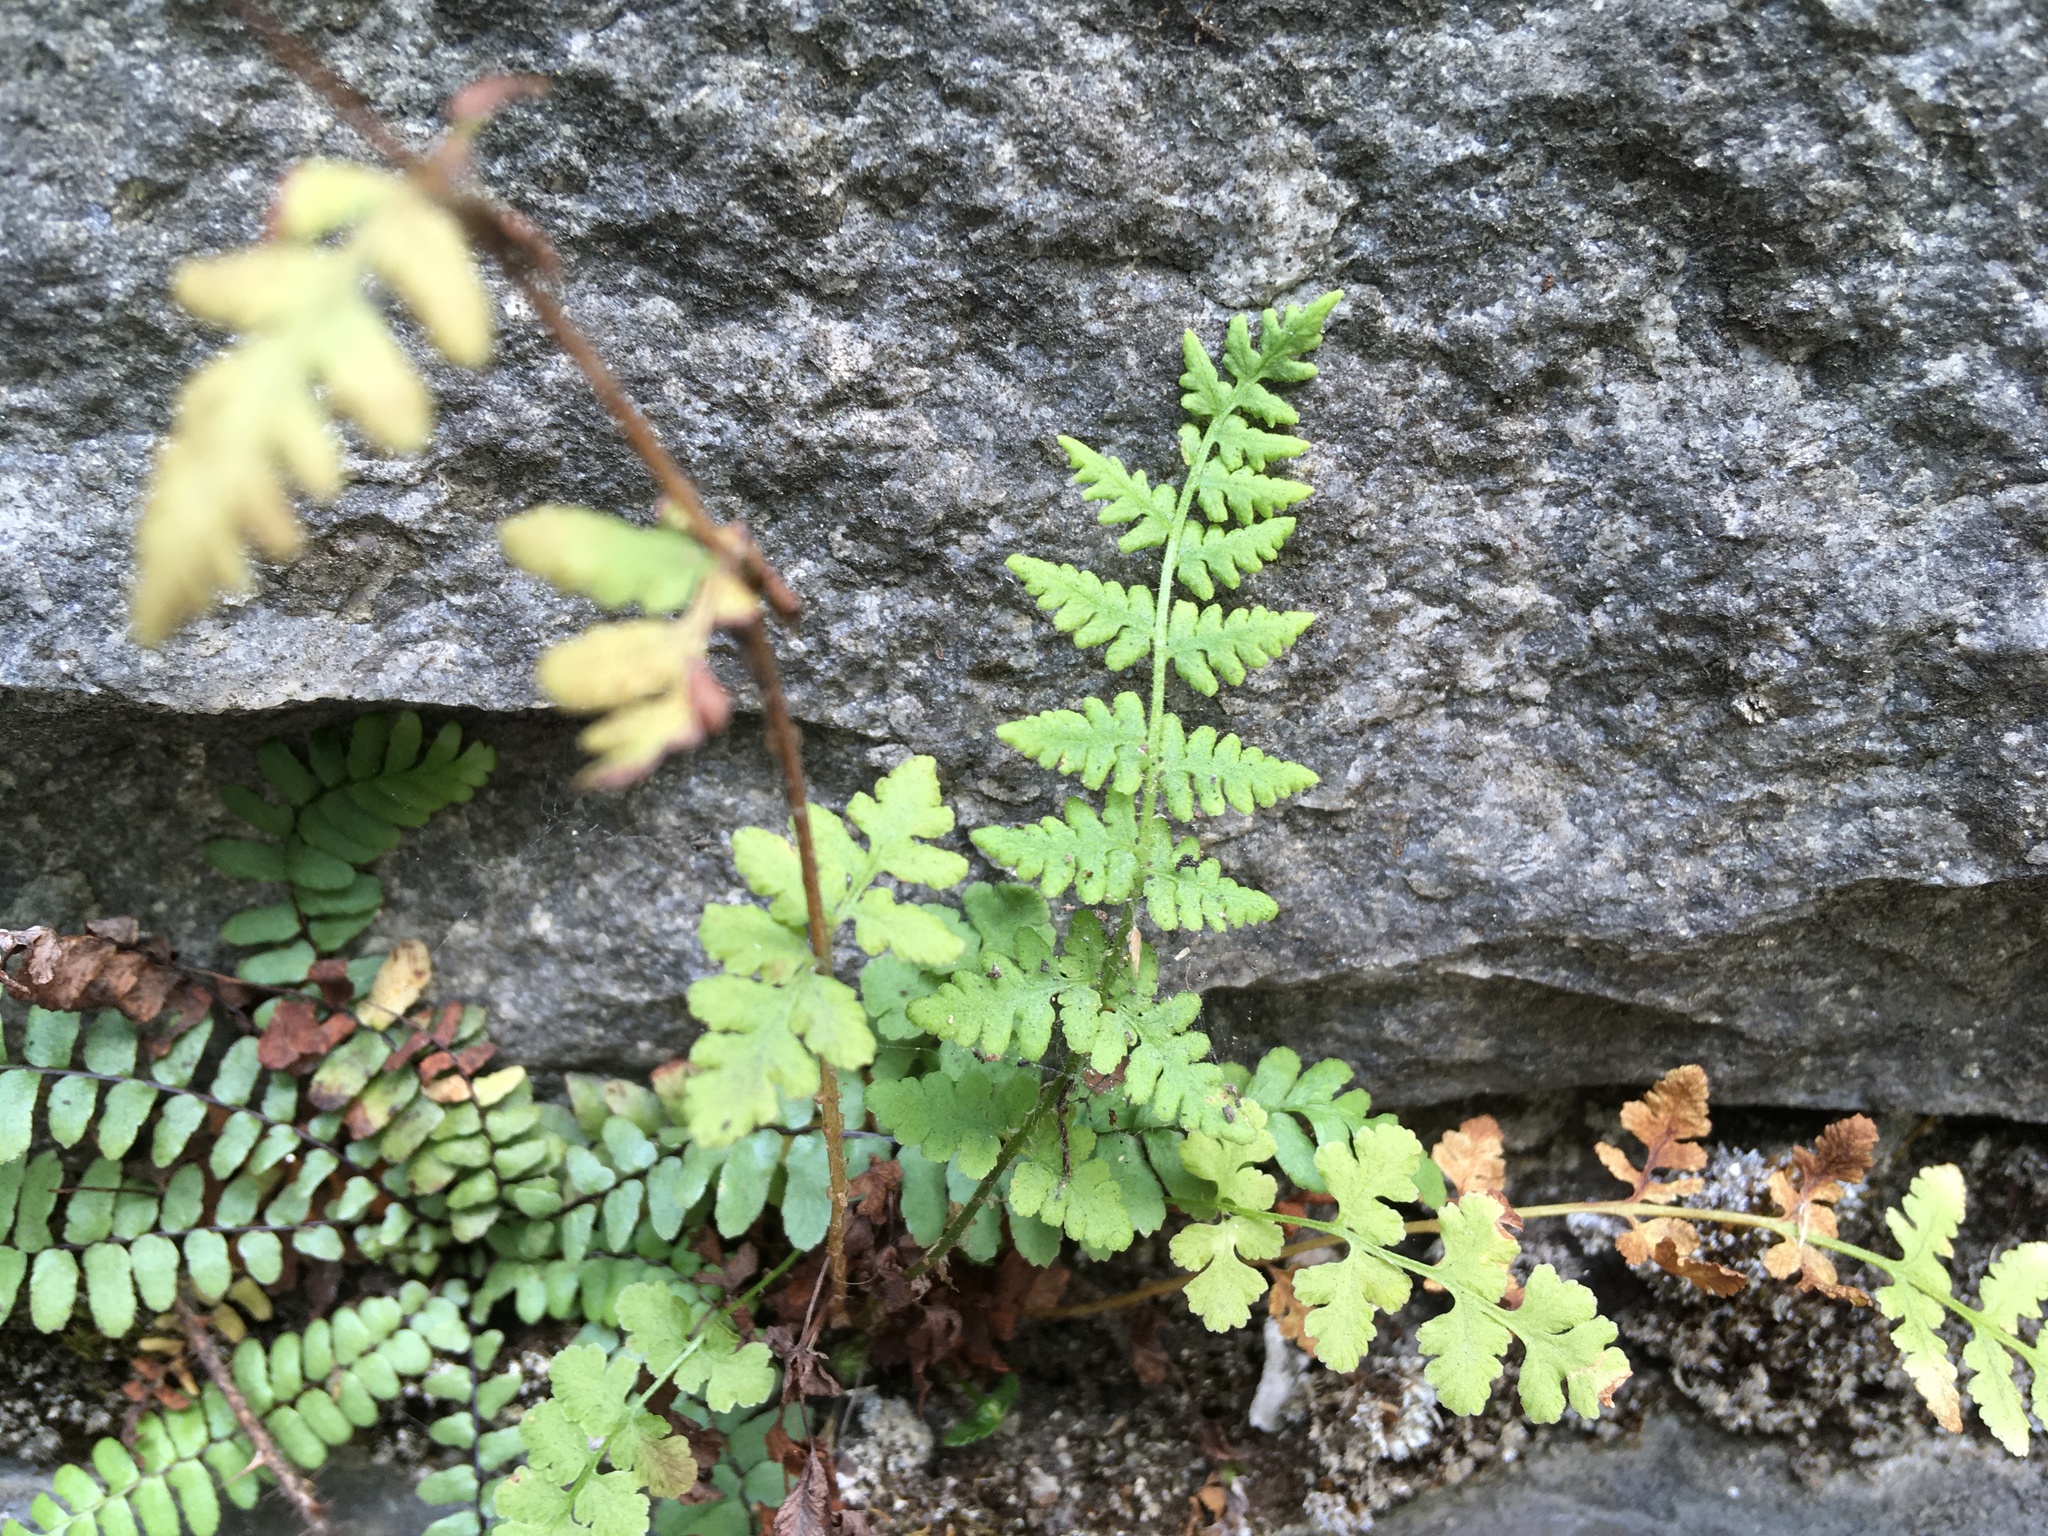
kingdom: Plantae
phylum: Tracheophyta
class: Polypodiopsida
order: Polypodiales
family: Woodsiaceae
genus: Physematium
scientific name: Physematium obtusum
